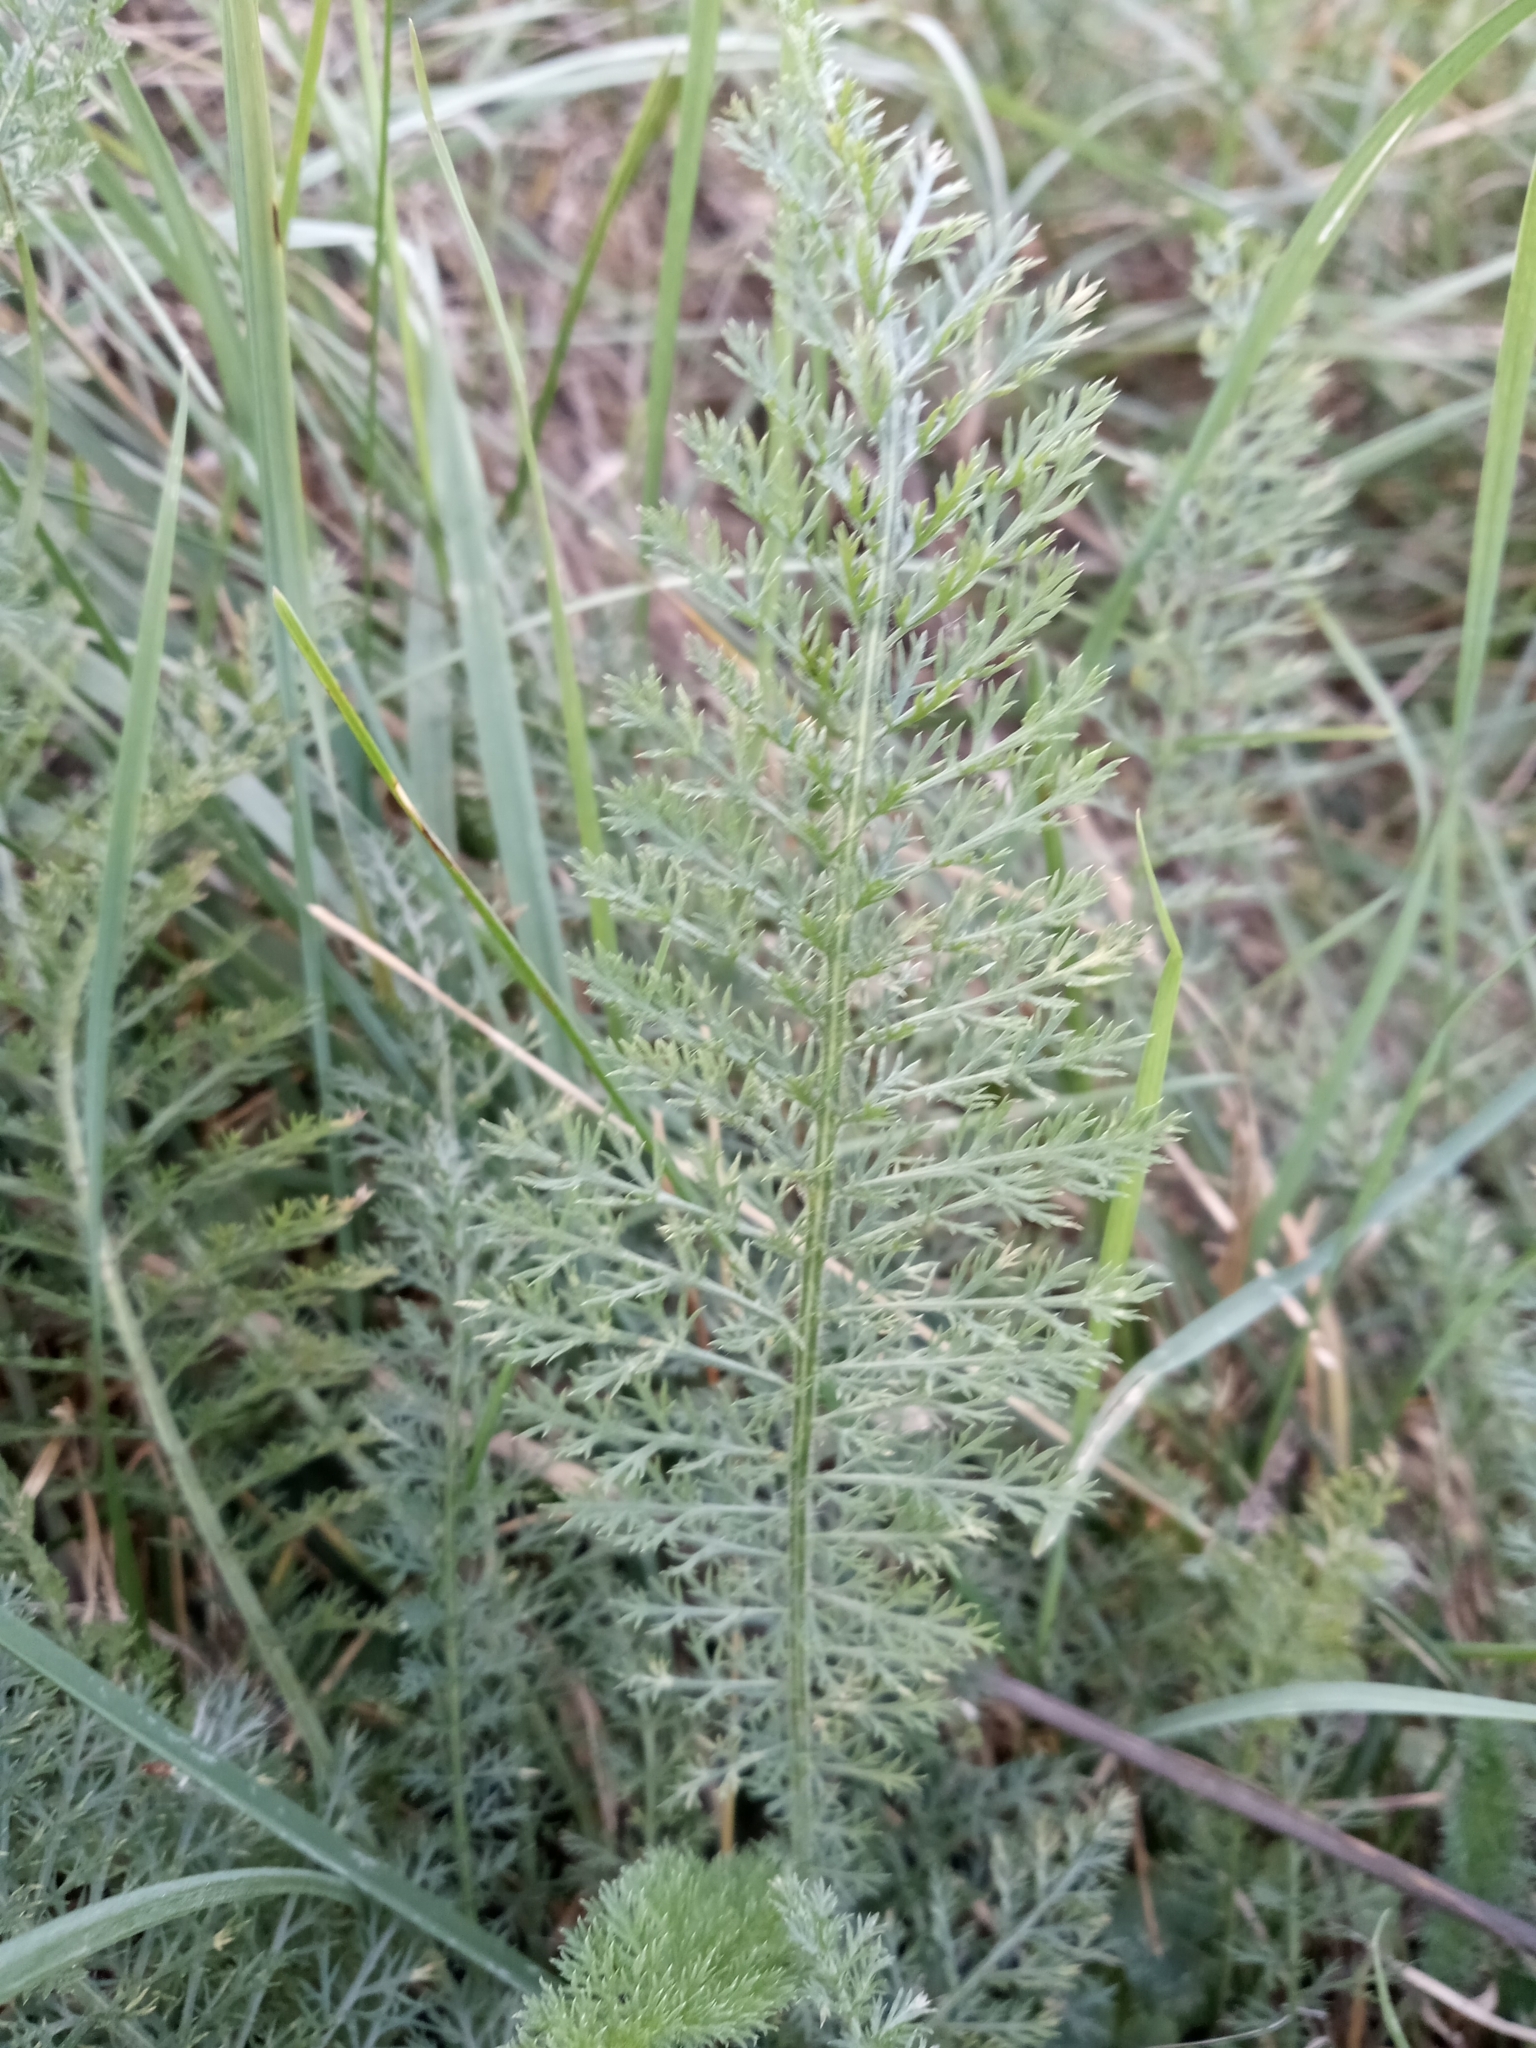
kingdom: Plantae
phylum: Tracheophyta
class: Magnoliopsida
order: Asterales
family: Asteraceae
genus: Achillea
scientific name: Achillea millefolium
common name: Yarrow
